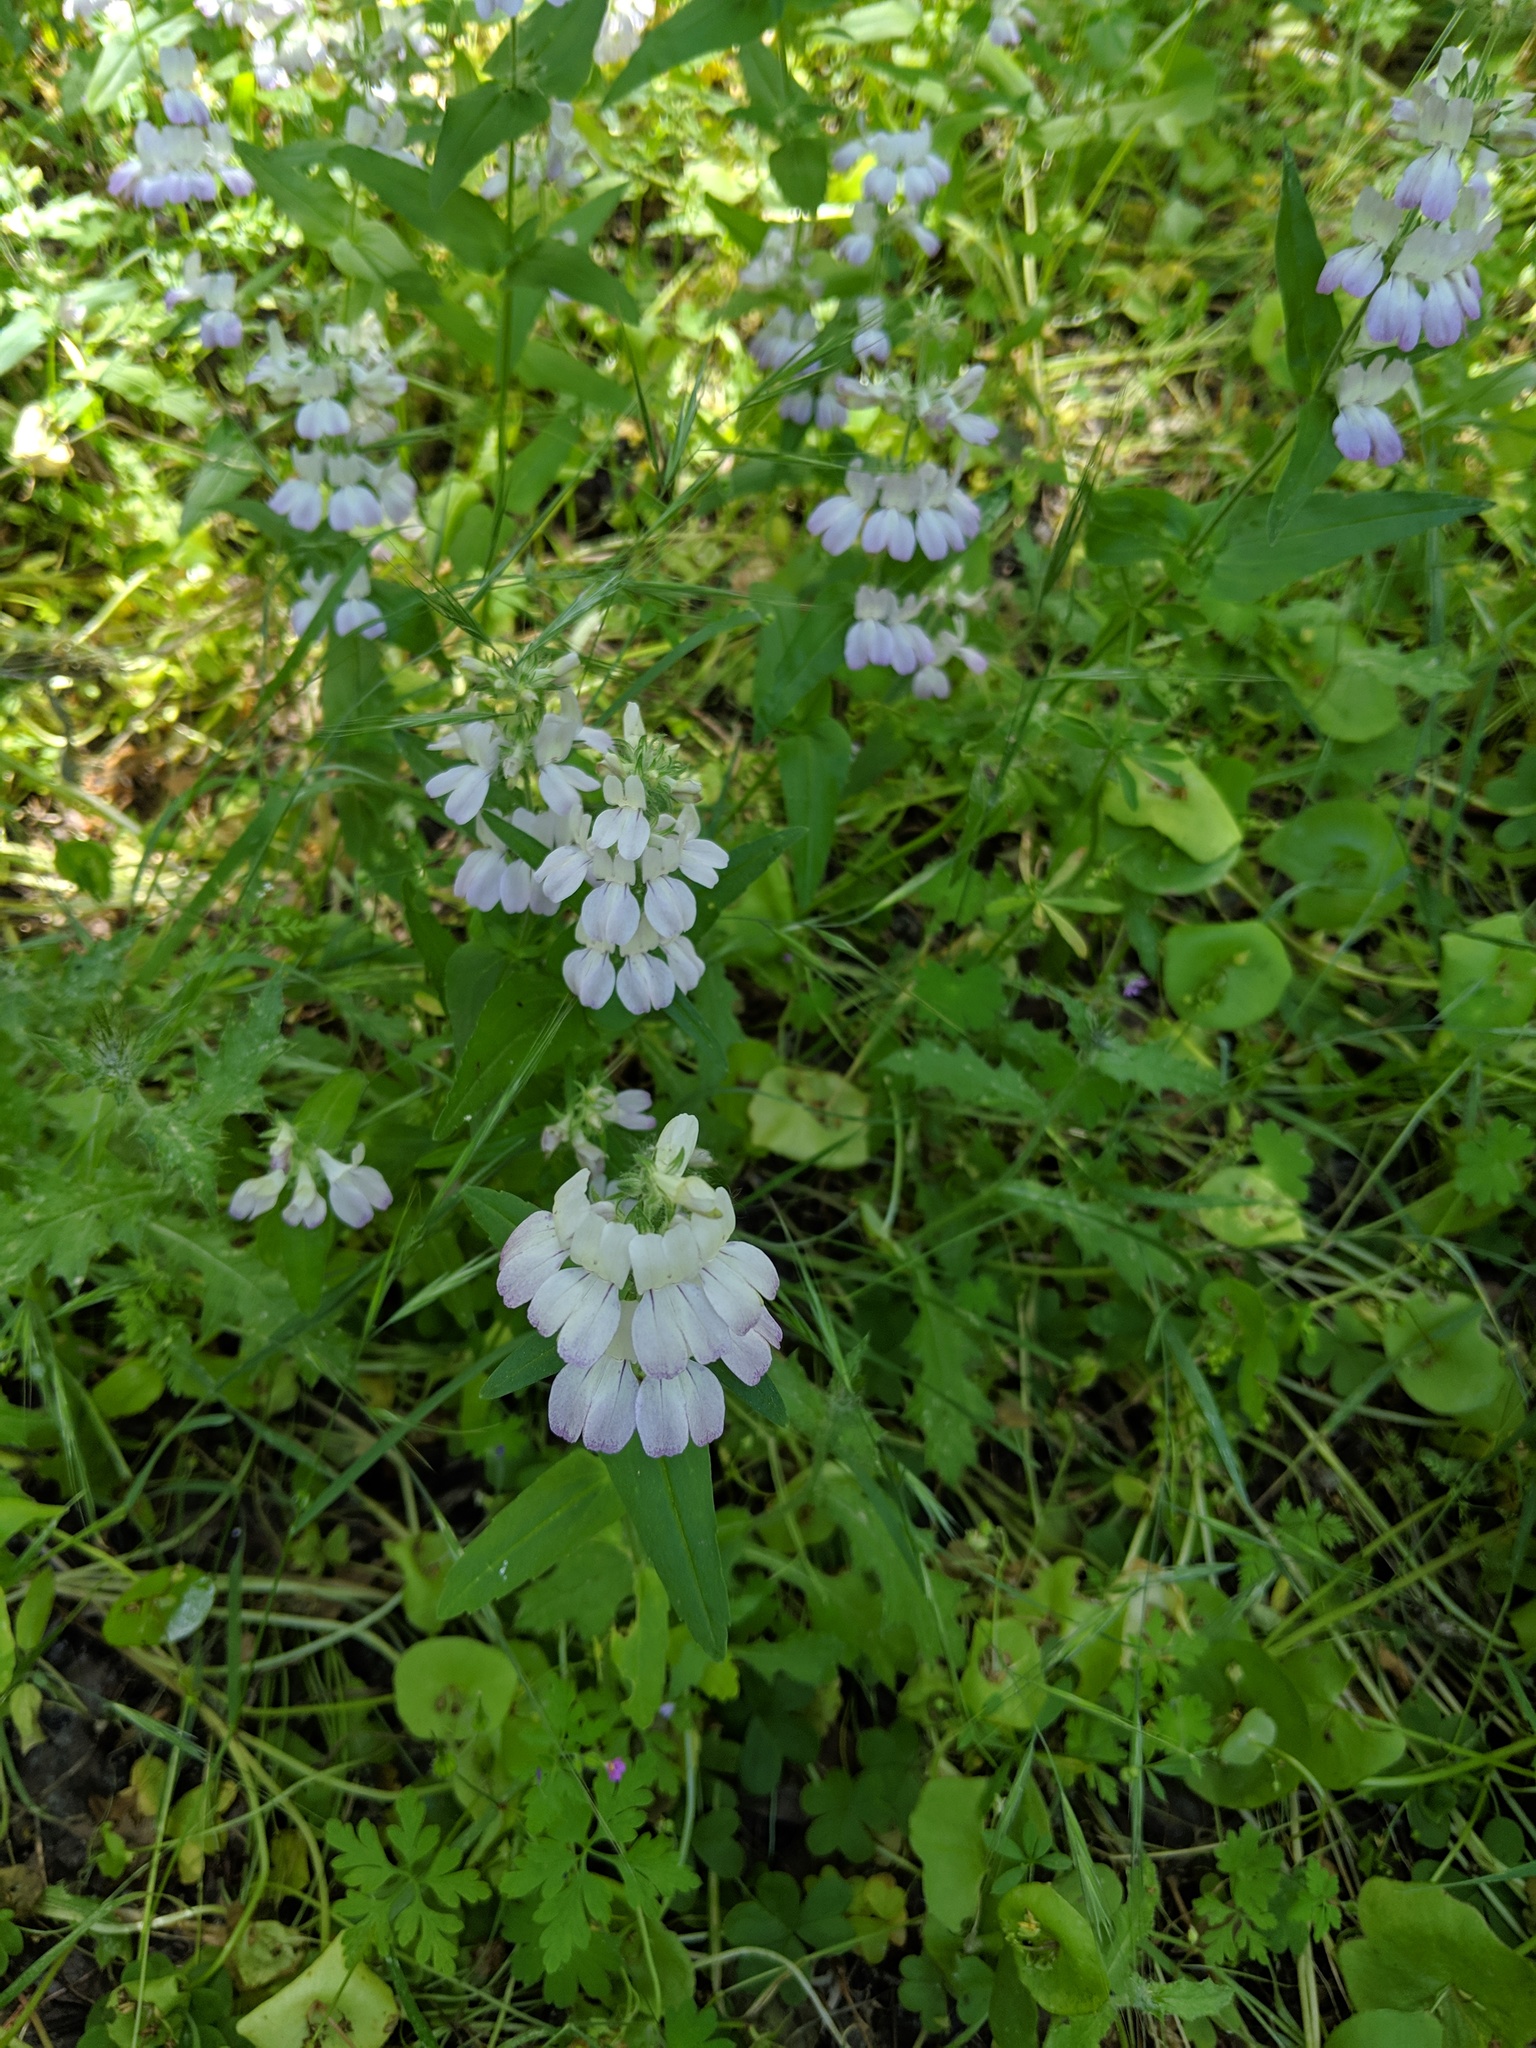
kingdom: Plantae
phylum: Tracheophyta
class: Magnoliopsida
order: Lamiales
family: Plantaginaceae
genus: Collinsia
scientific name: Collinsia heterophylla
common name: Chinese-houses
